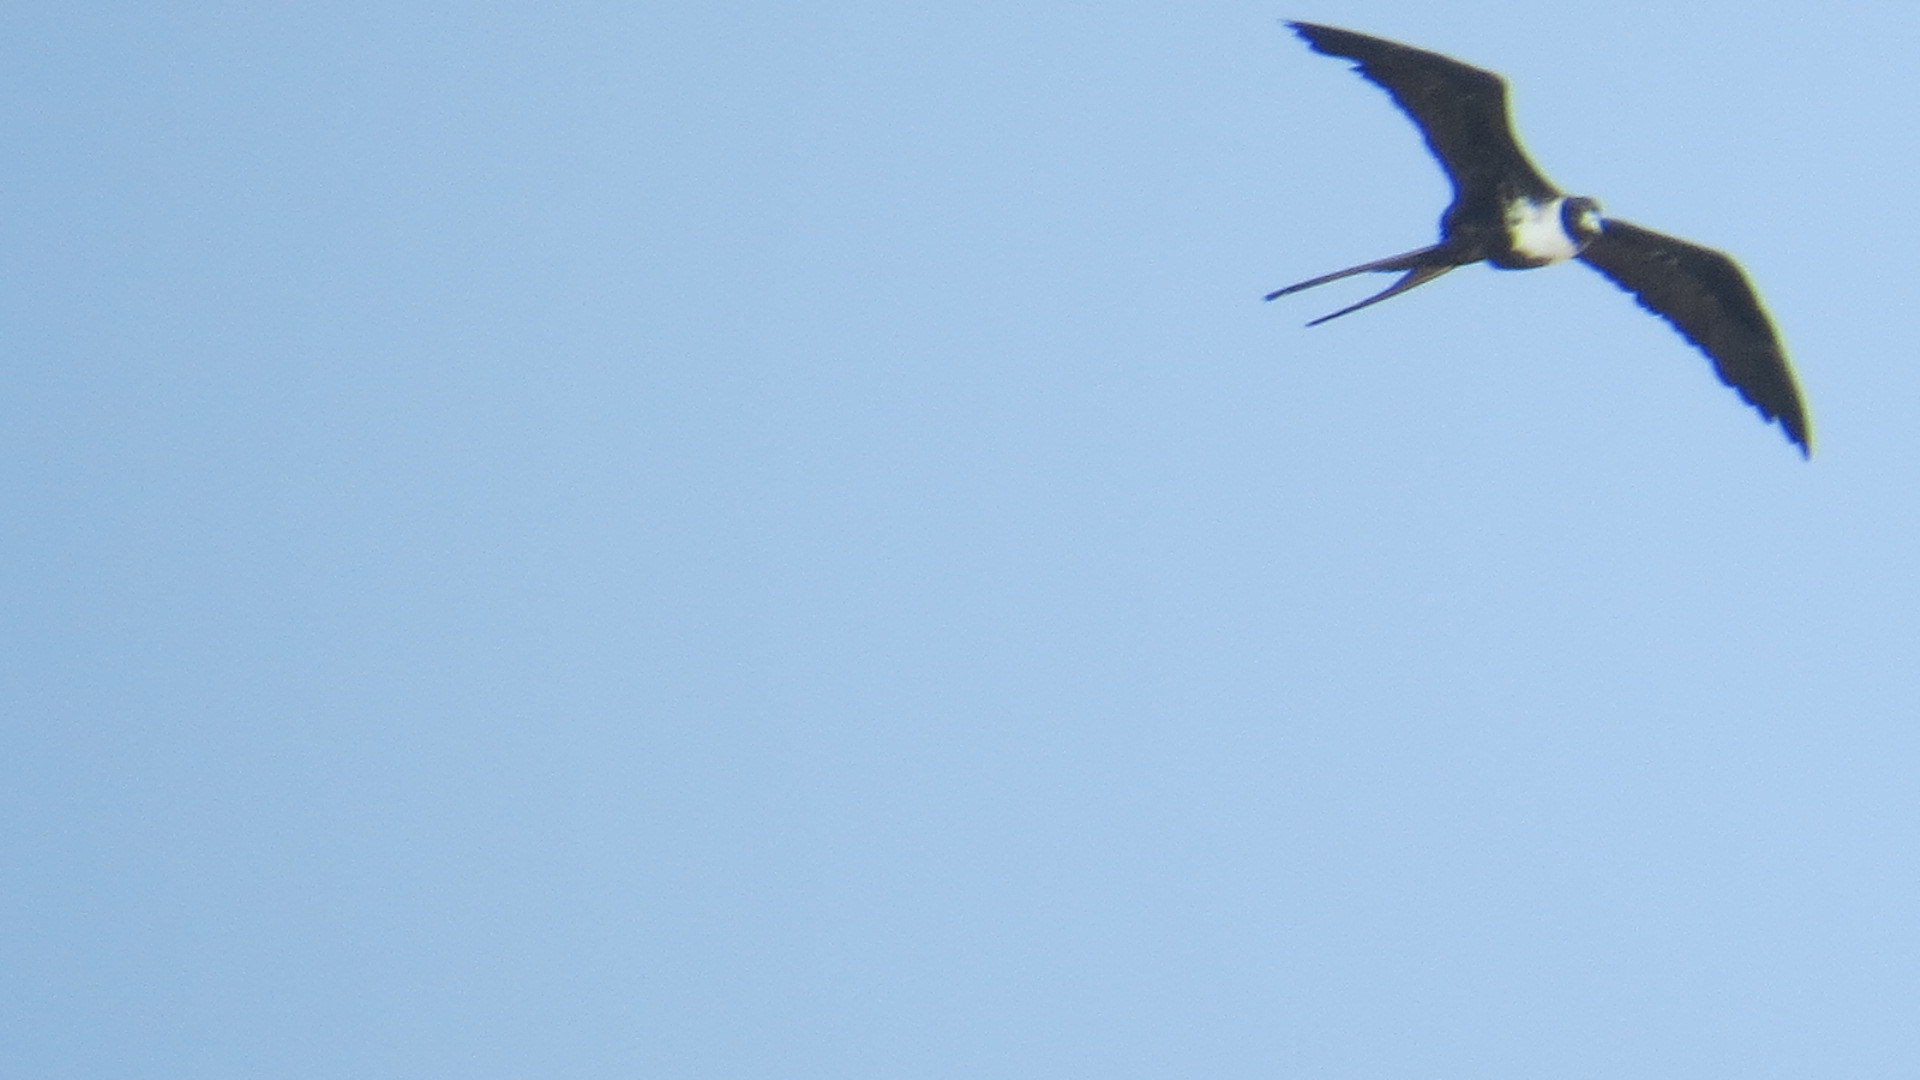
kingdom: Animalia
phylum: Chordata
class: Aves
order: Suliformes
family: Fregatidae
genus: Fregata
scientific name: Fregata magnificens
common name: Magnificent frigatebird
